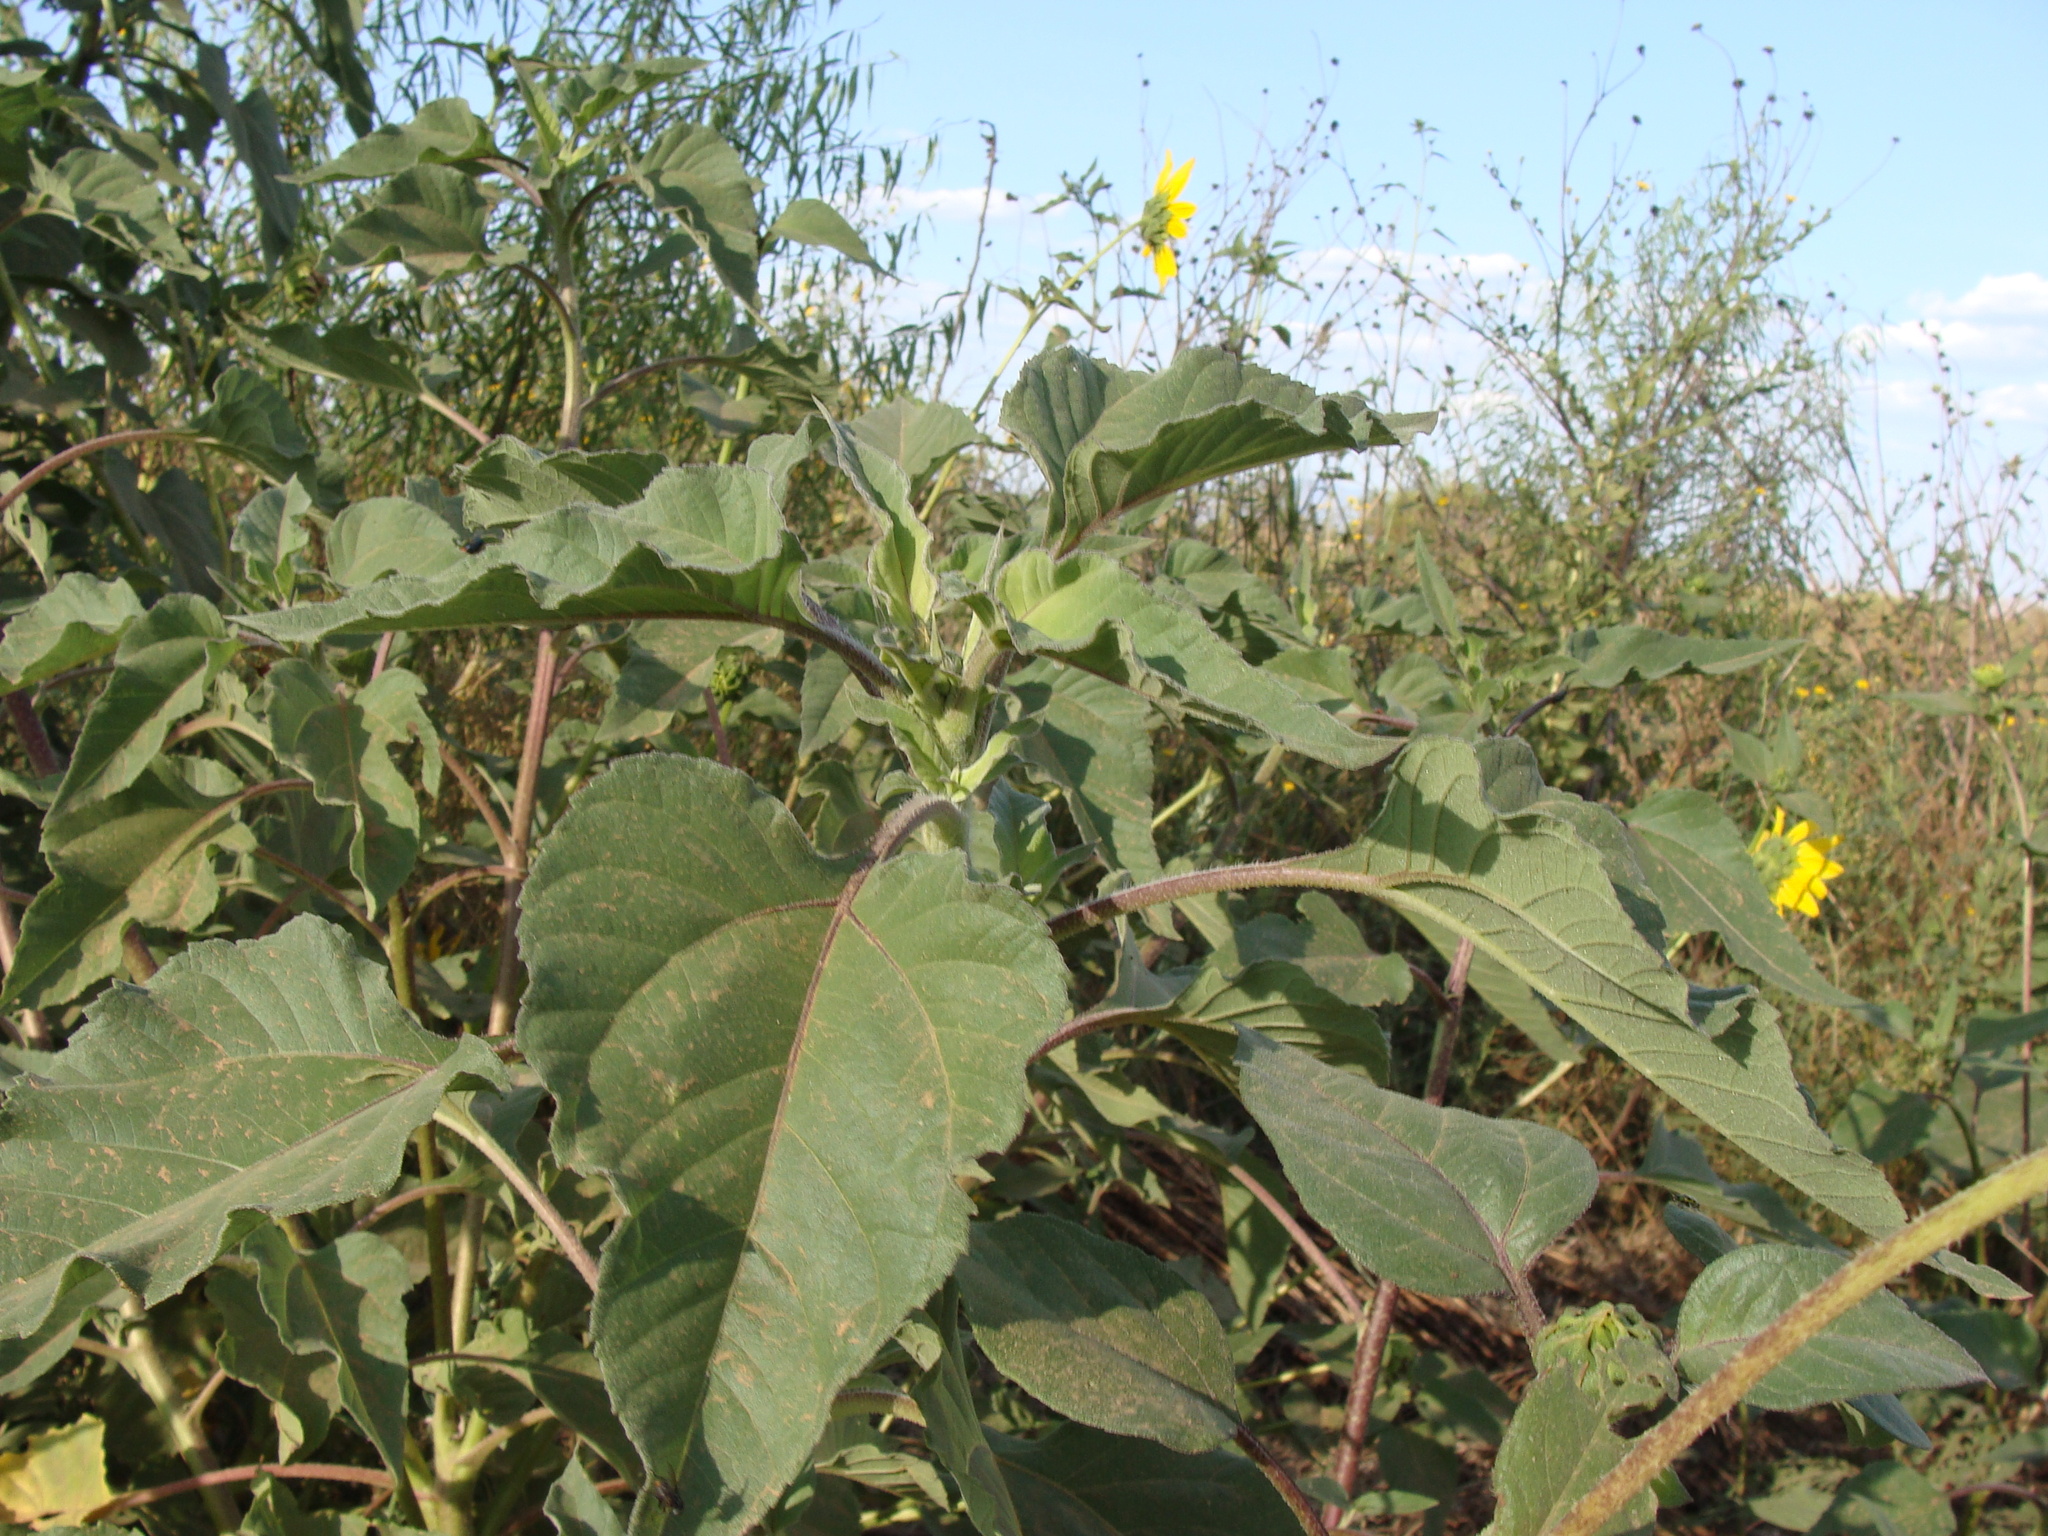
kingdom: Plantae
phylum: Tracheophyta
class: Magnoliopsida
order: Asterales
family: Asteraceae
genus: Helianthus
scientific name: Helianthus annuus
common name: Sunflower
